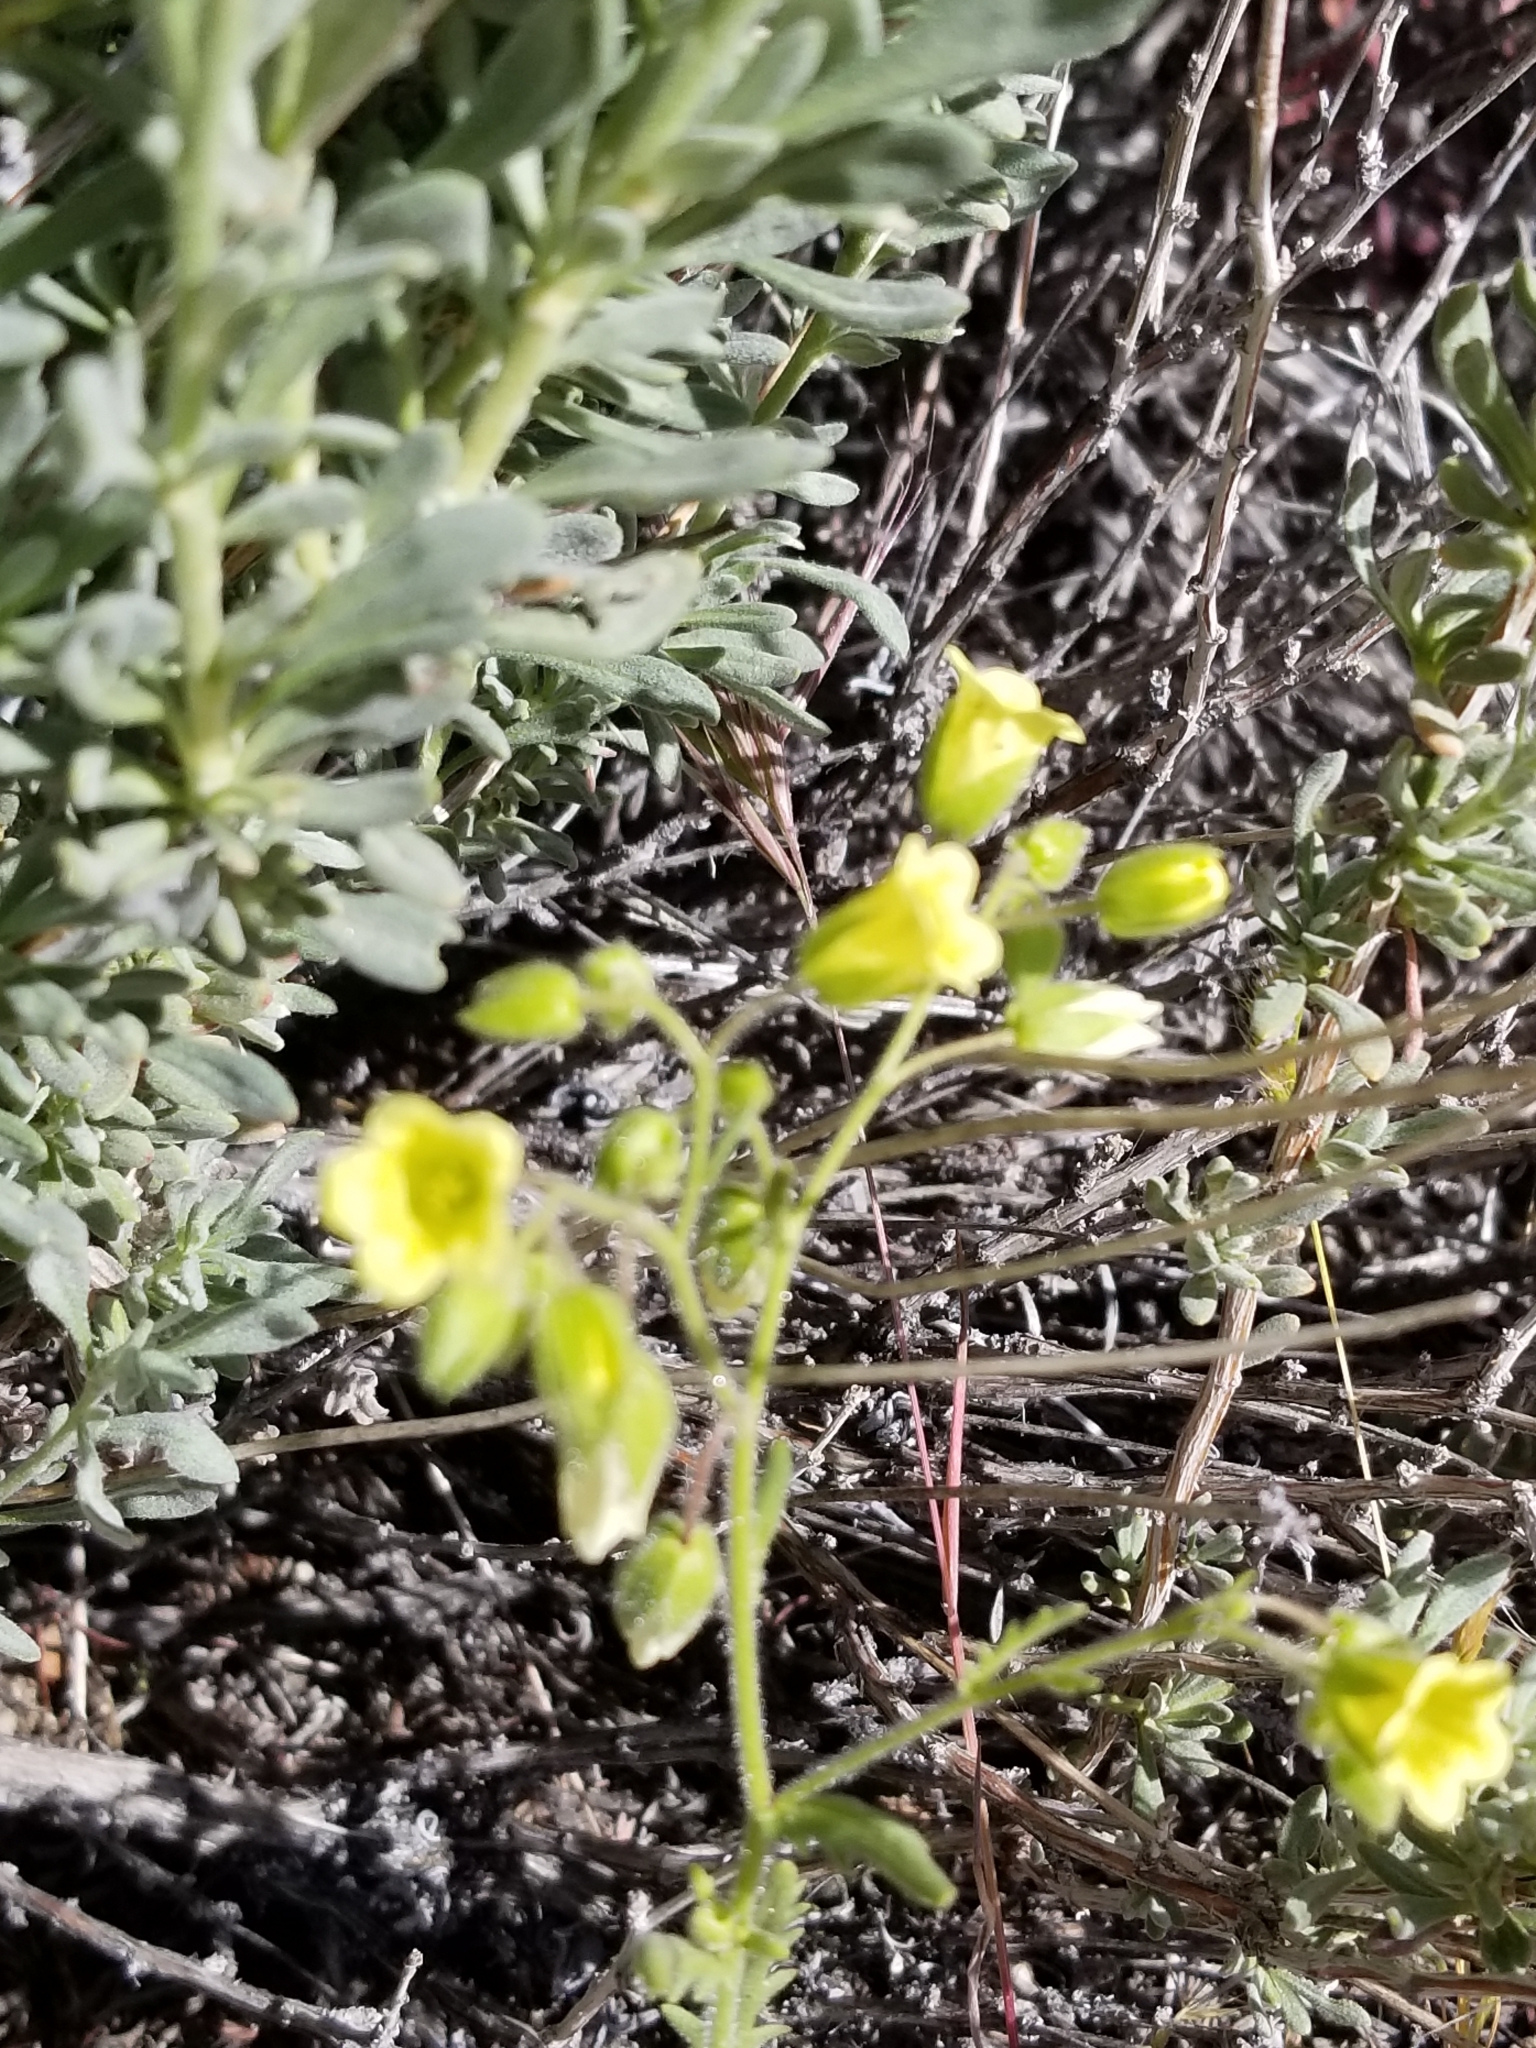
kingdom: Plantae
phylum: Tracheophyta
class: Magnoliopsida
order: Boraginales
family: Hydrophyllaceae
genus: Emmenanthe
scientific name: Emmenanthe penduliflora
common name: Whispering-bells
